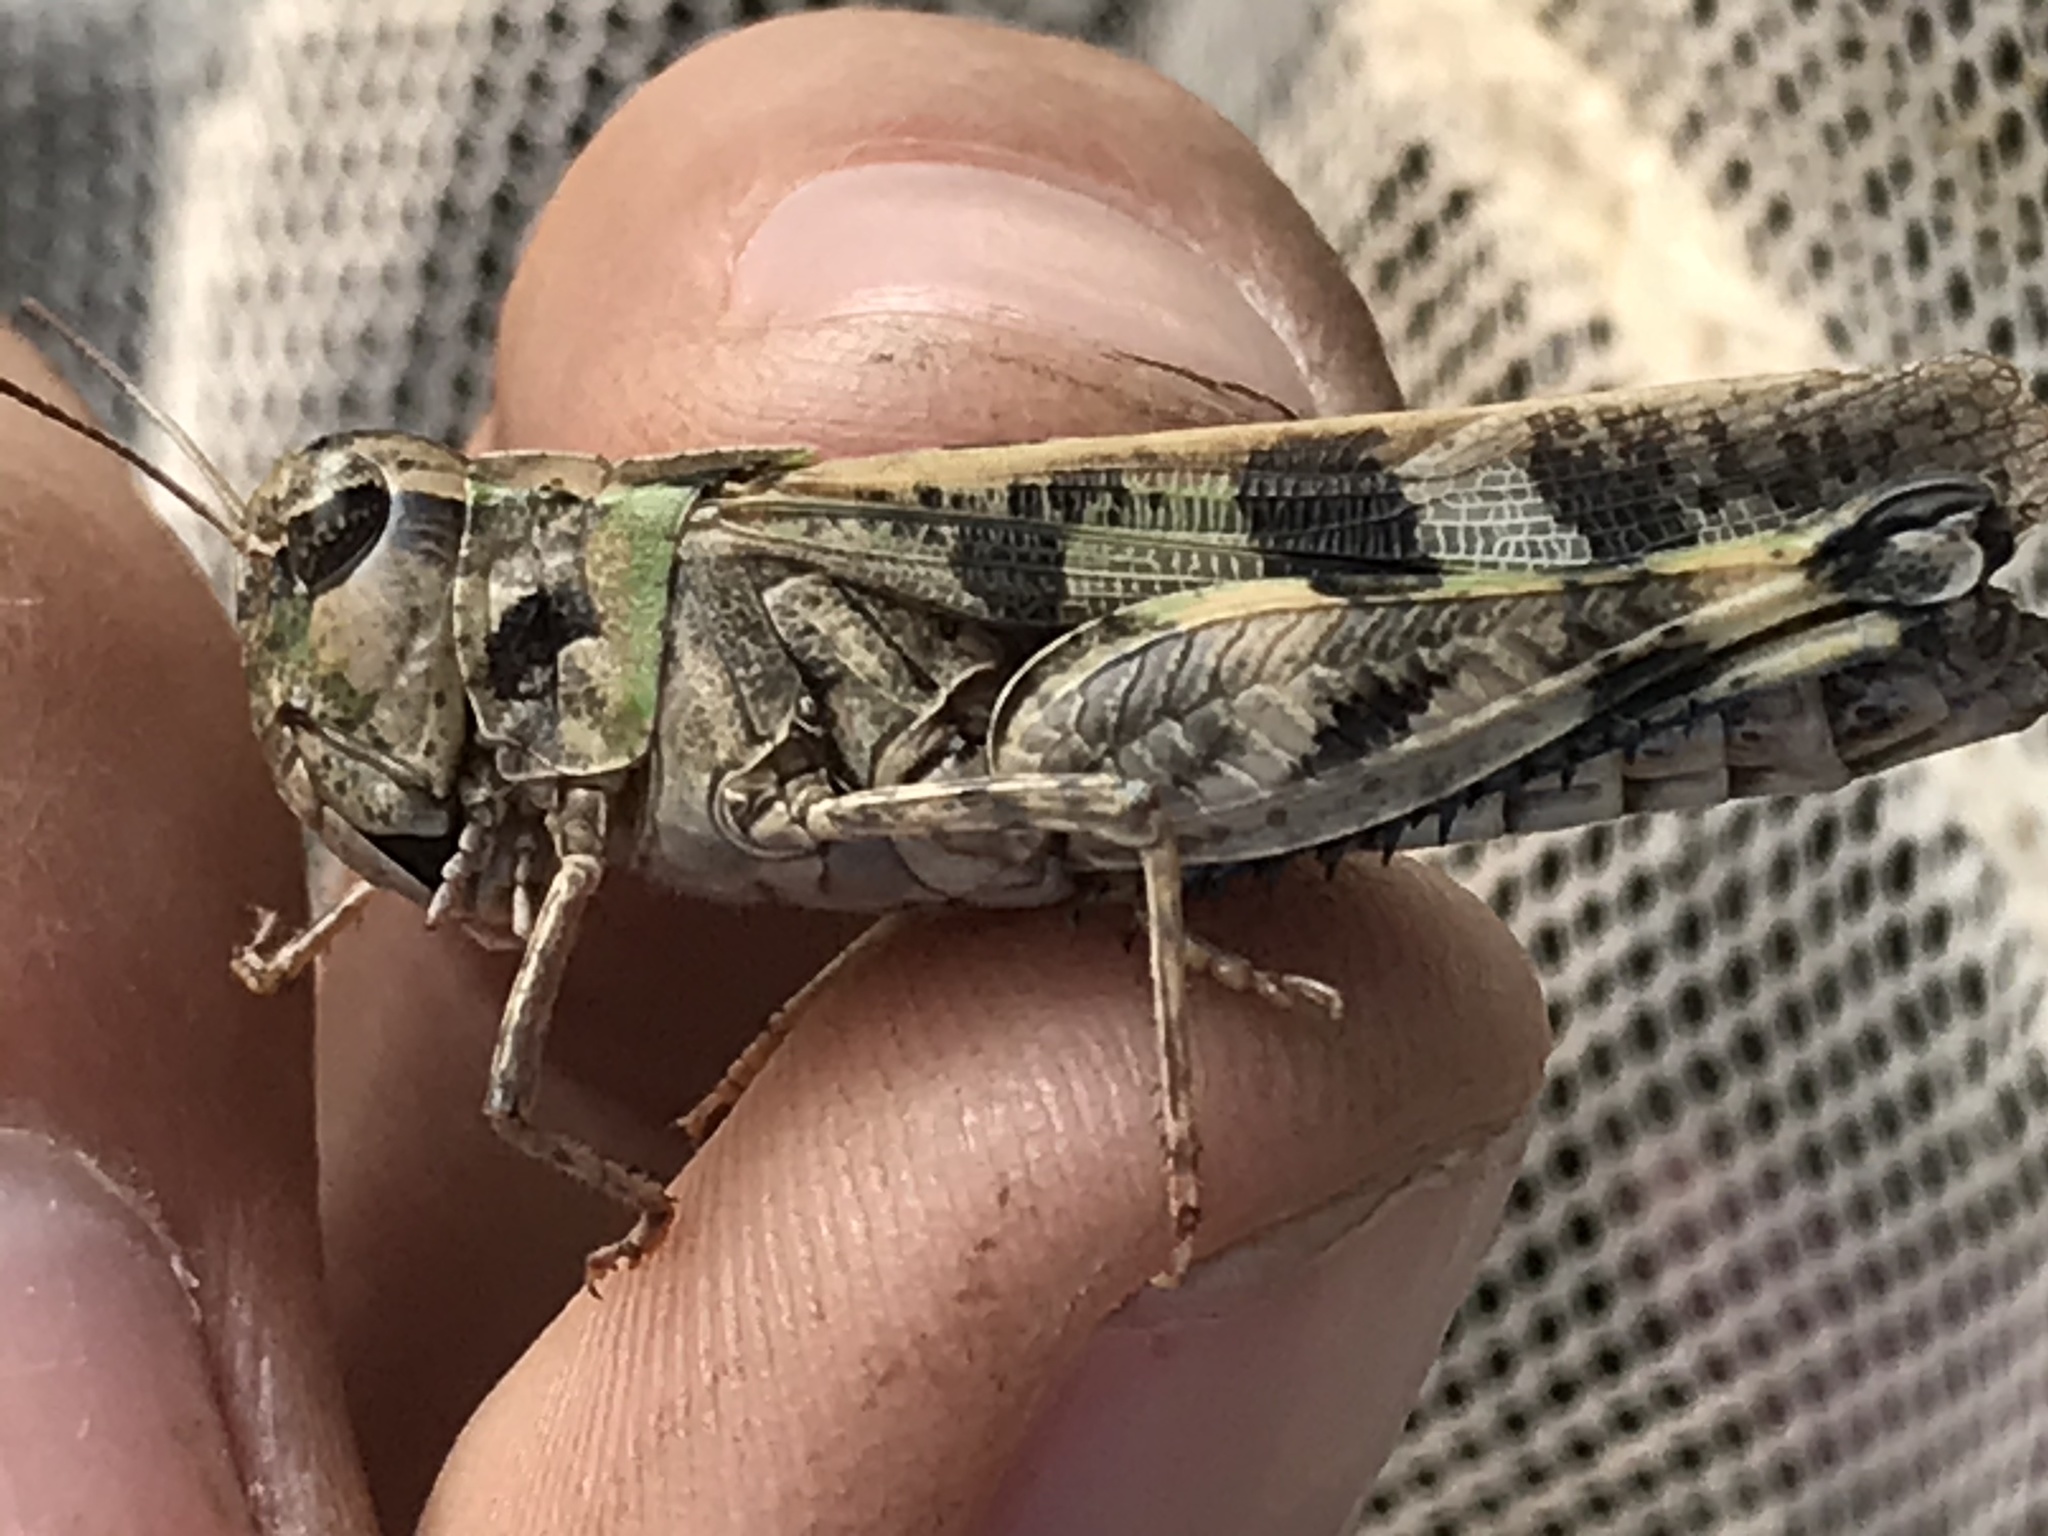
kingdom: Animalia
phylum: Arthropoda
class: Insecta
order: Orthoptera
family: Acrididae
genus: Encoptolophus
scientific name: Encoptolophus costalis
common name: Dusky grasshopper
